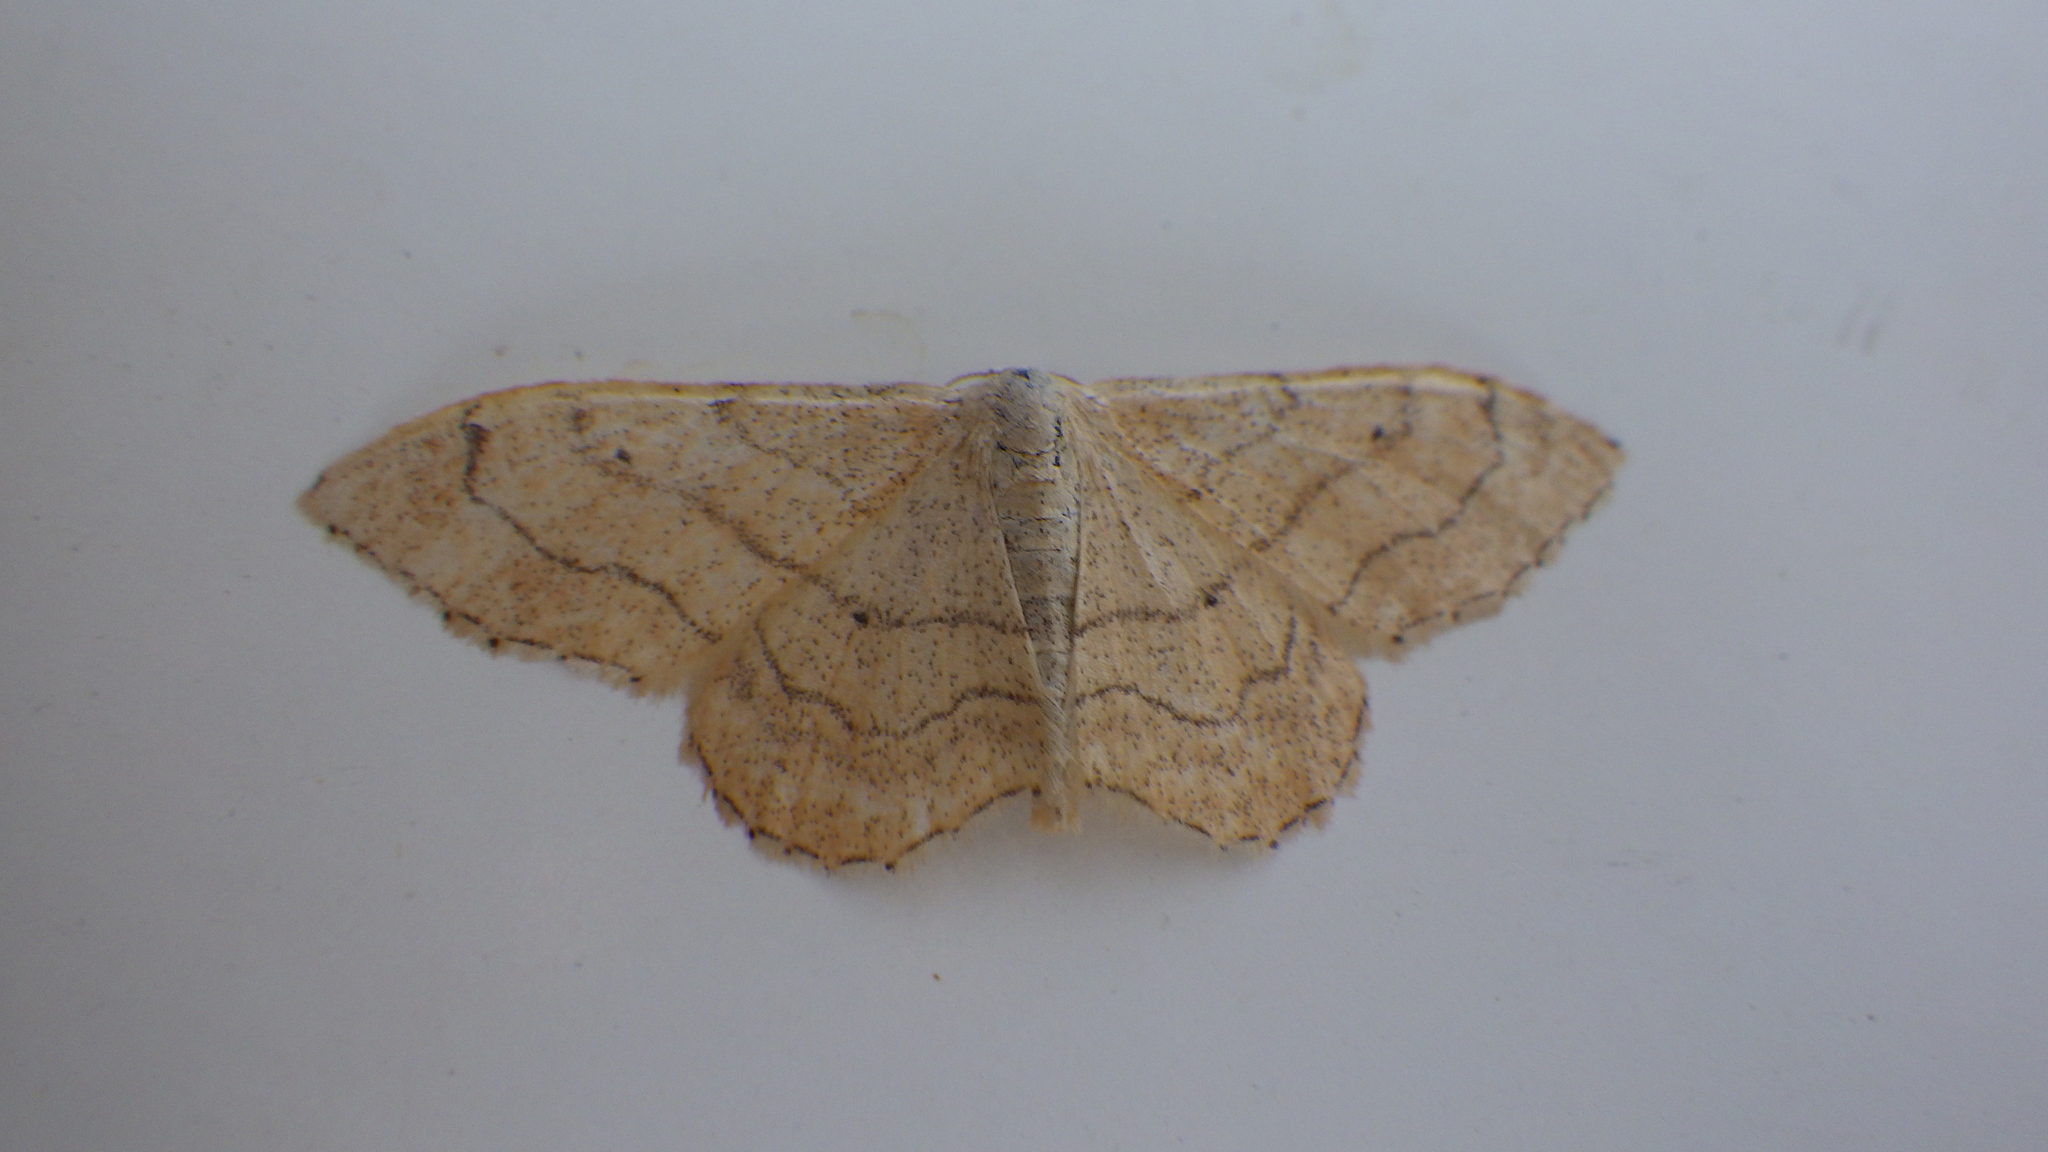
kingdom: Animalia
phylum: Arthropoda
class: Insecta
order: Lepidoptera
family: Geometridae
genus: Idaea
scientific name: Idaea aversata
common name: Riband wave
